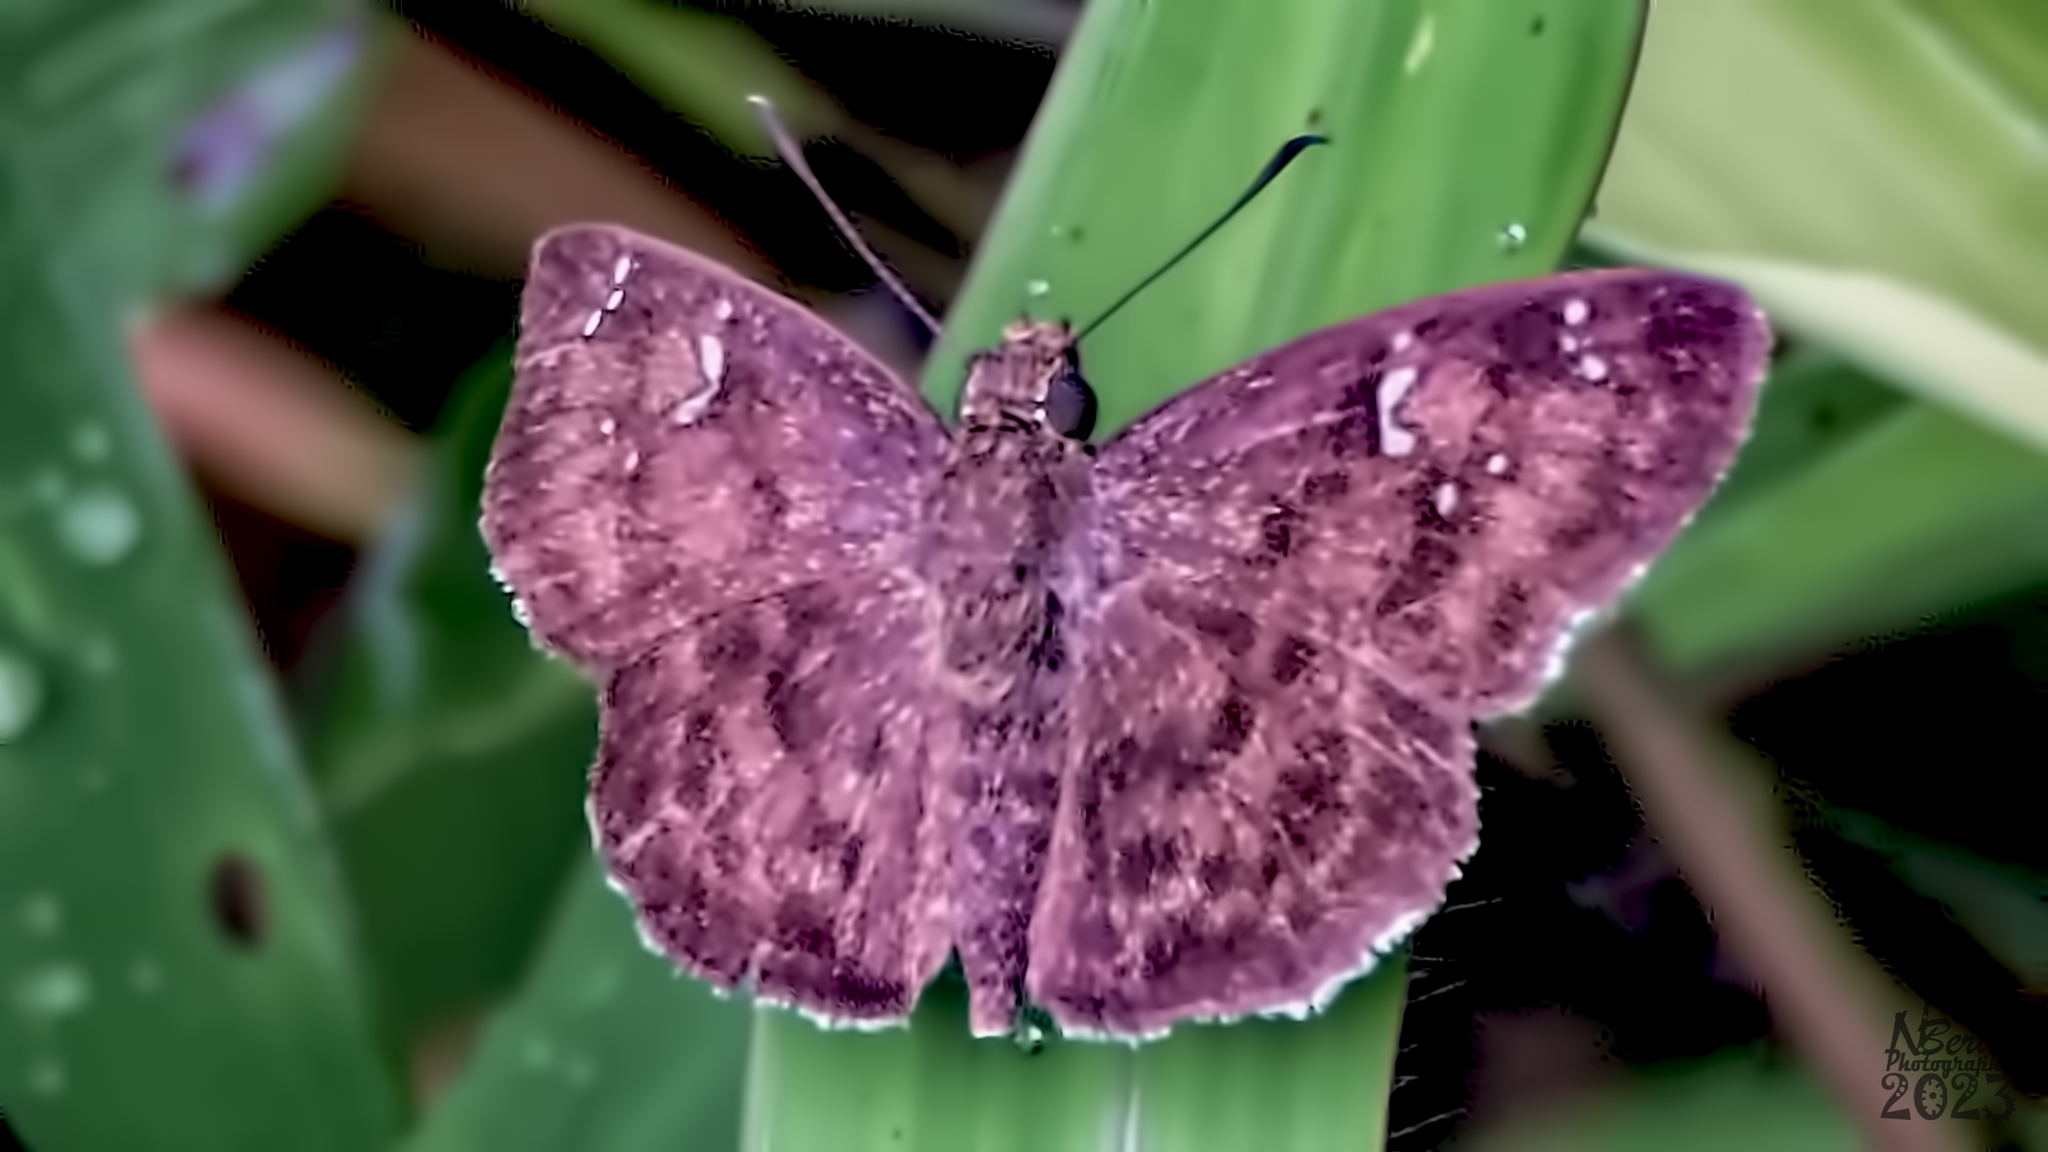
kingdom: Animalia
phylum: Arthropoda
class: Insecta
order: Lepidoptera
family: Hesperiidae
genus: Sarangesa
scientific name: Sarangesa dasahara
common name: Common small flat
